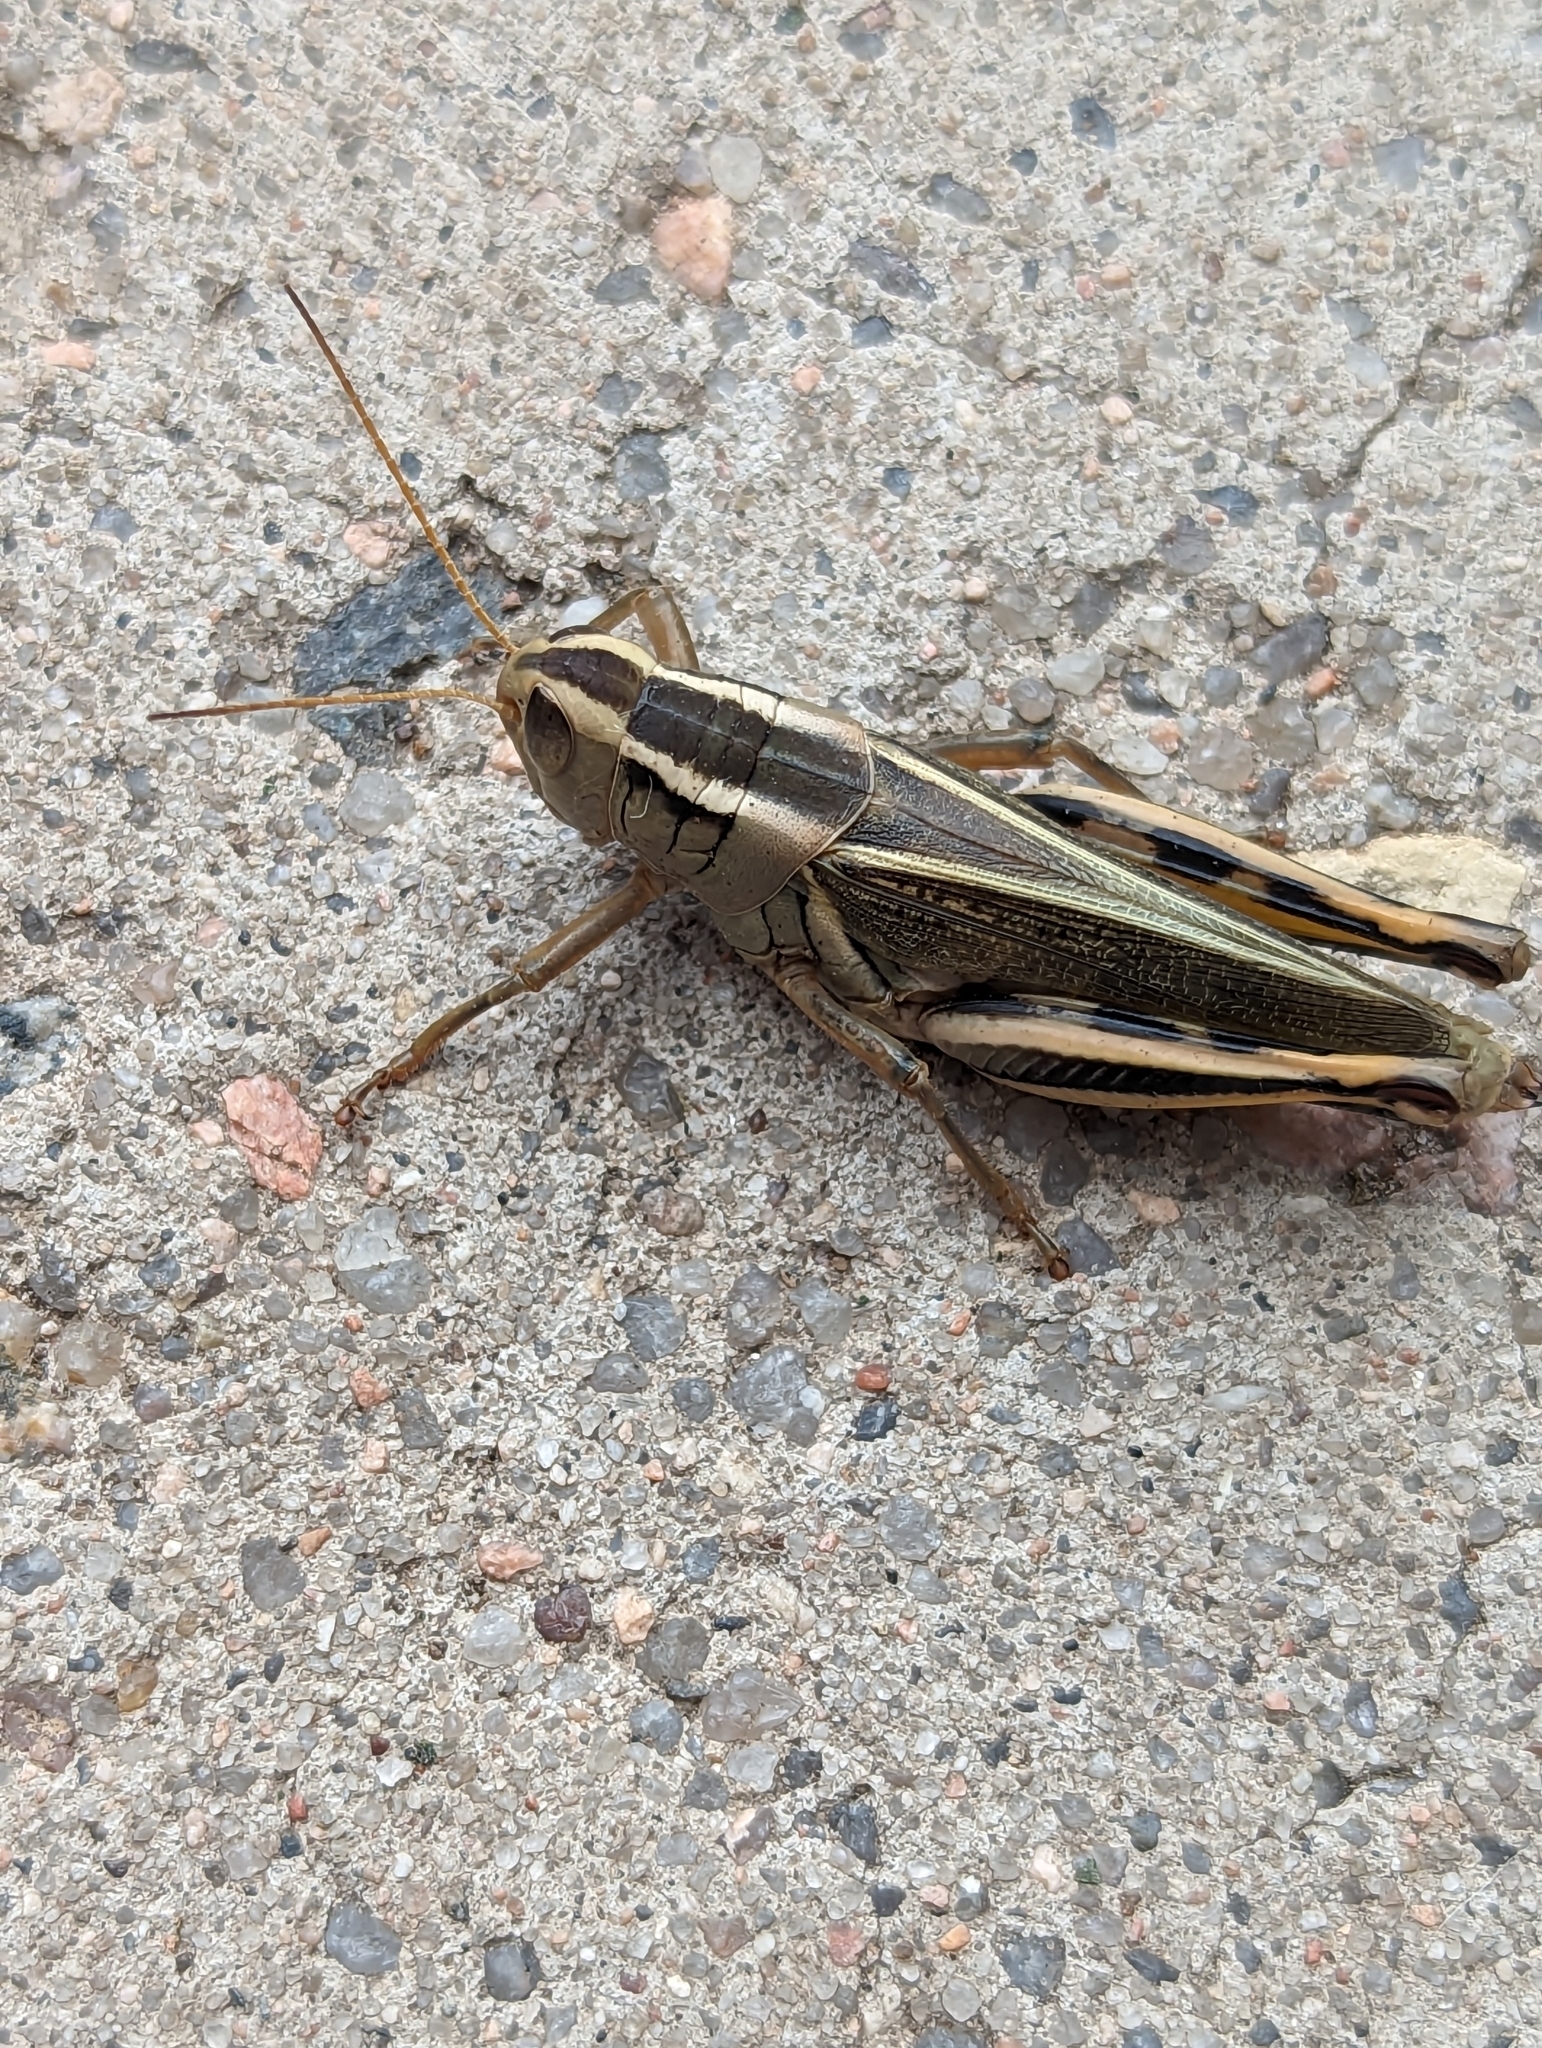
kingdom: Animalia
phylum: Arthropoda
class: Insecta
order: Orthoptera
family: Acrididae
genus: Melanoplus
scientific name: Melanoplus bivittatus
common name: Two-striped grasshopper
